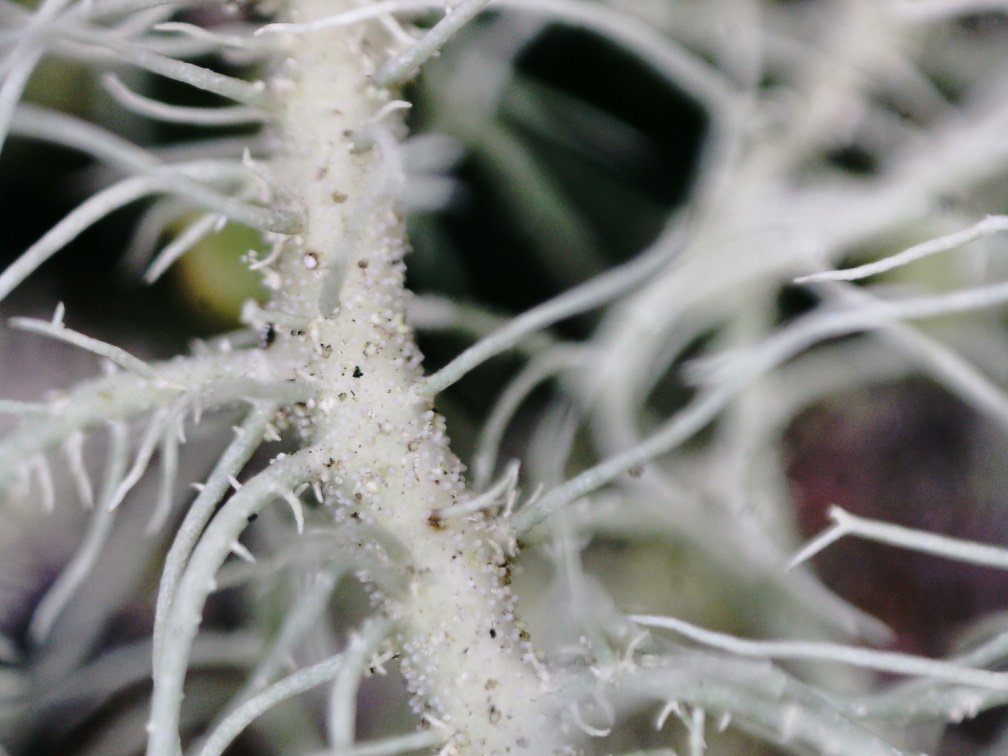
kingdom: Fungi
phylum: Ascomycota
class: Lecanoromycetes
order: Lecanorales
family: Parmeliaceae
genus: Usnea
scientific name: Usnea dasopoga
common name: Fishbone beard lichen
